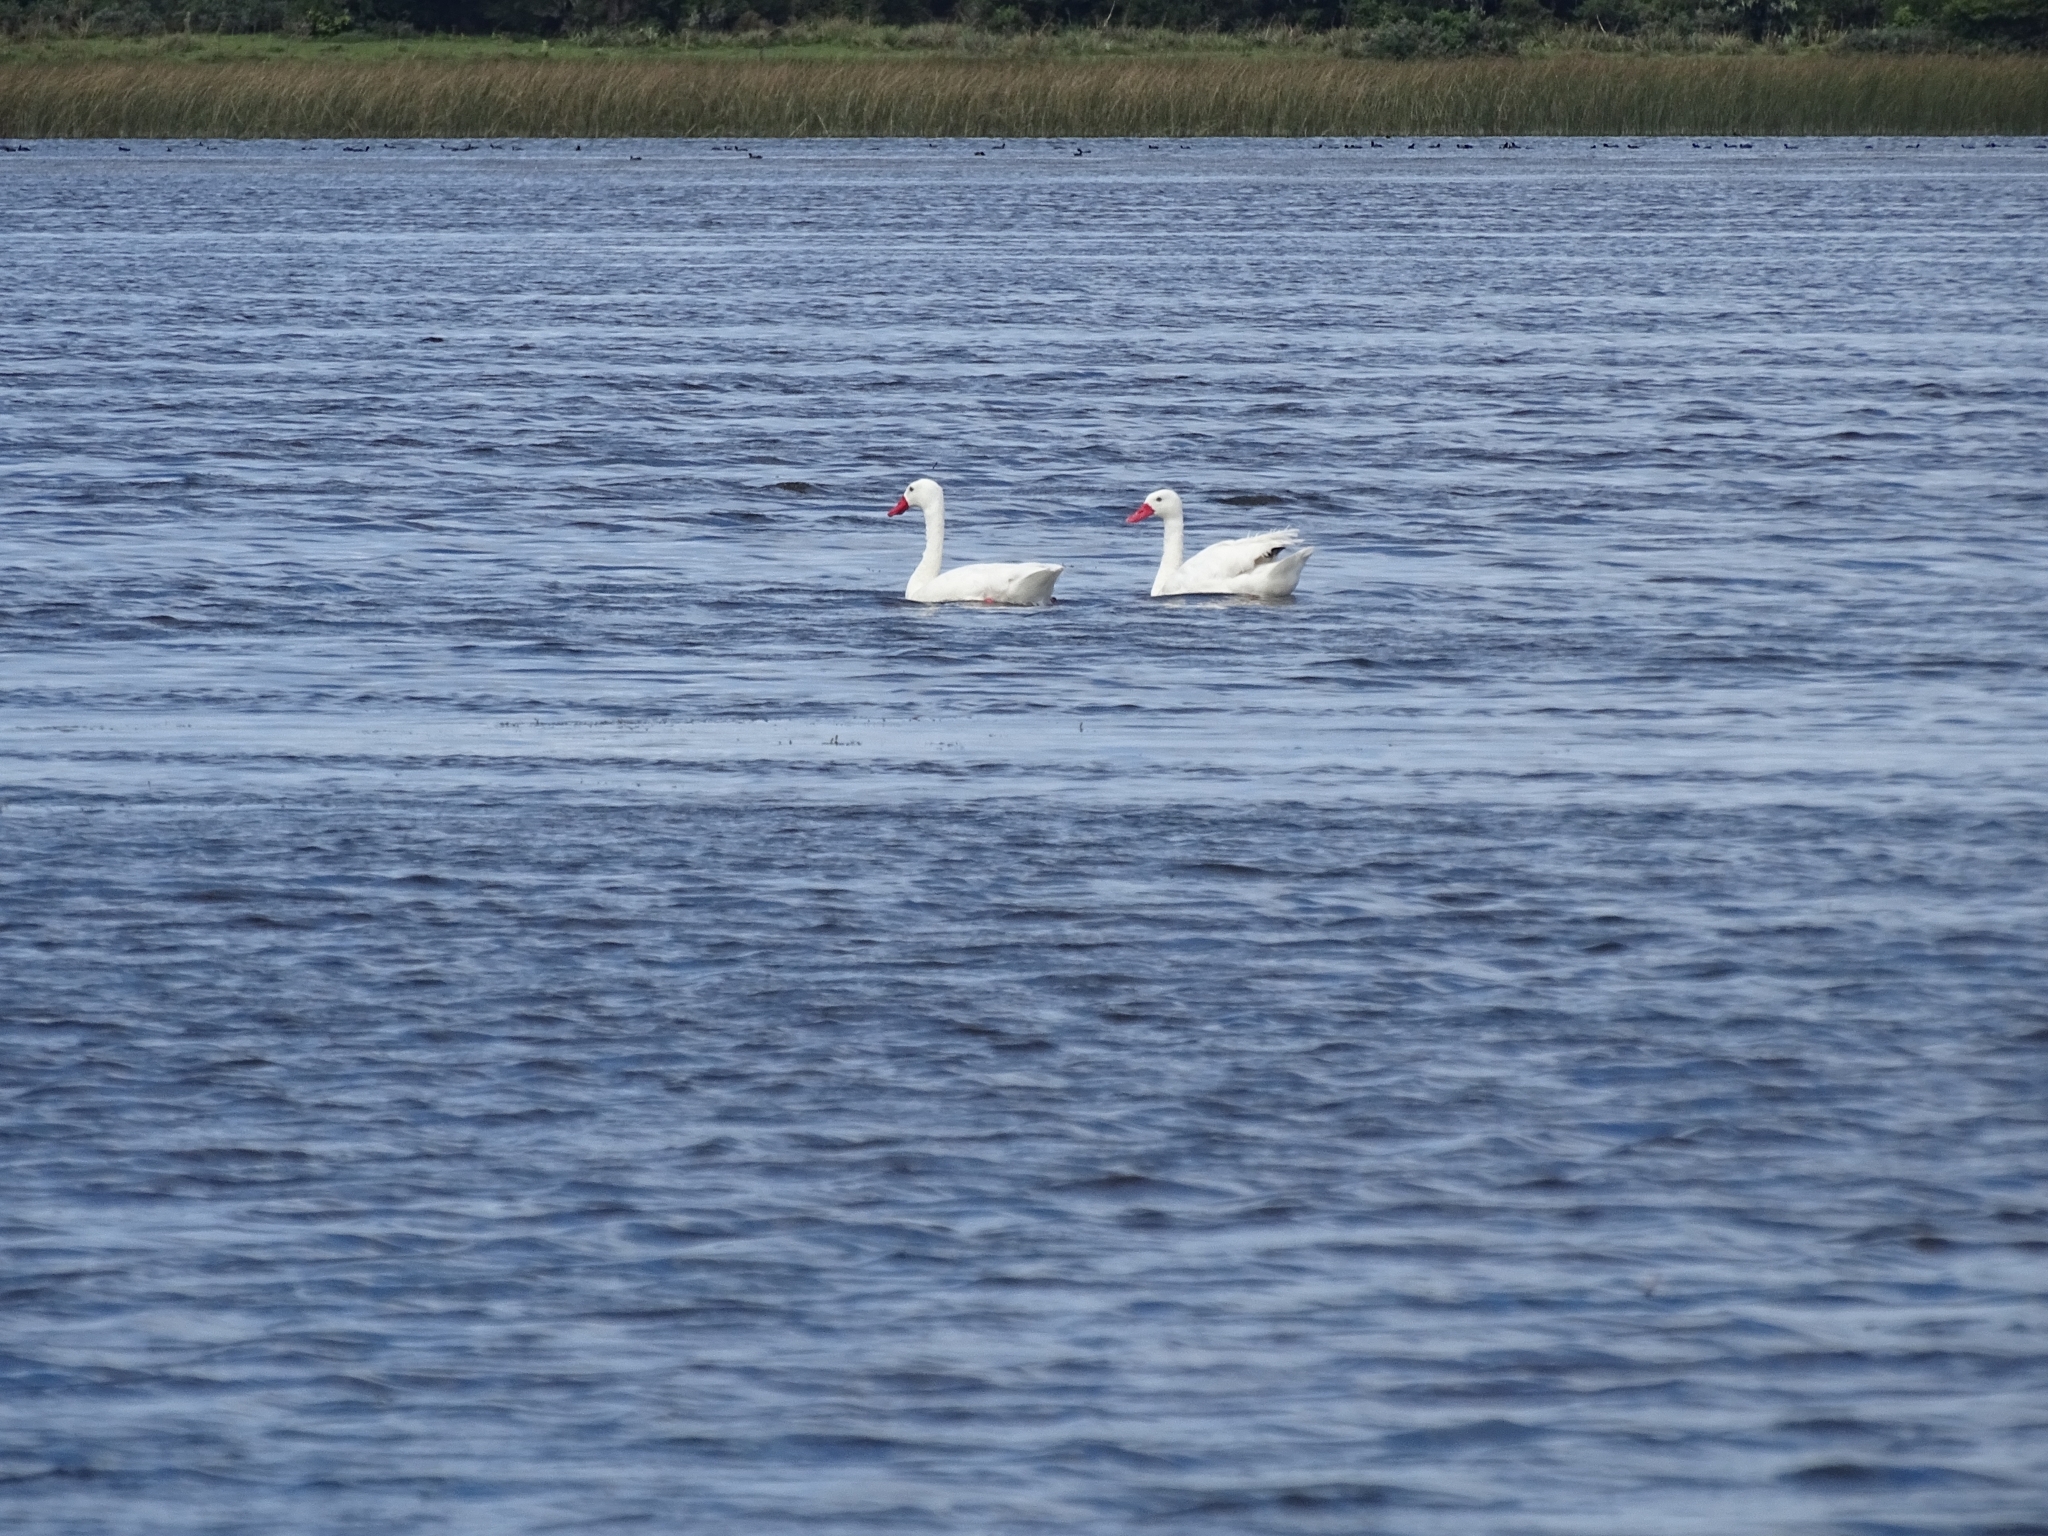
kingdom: Animalia
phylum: Chordata
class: Aves
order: Anseriformes
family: Anatidae
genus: Coscoroba
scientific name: Coscoroba coscoroba
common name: Coscoroba swan
